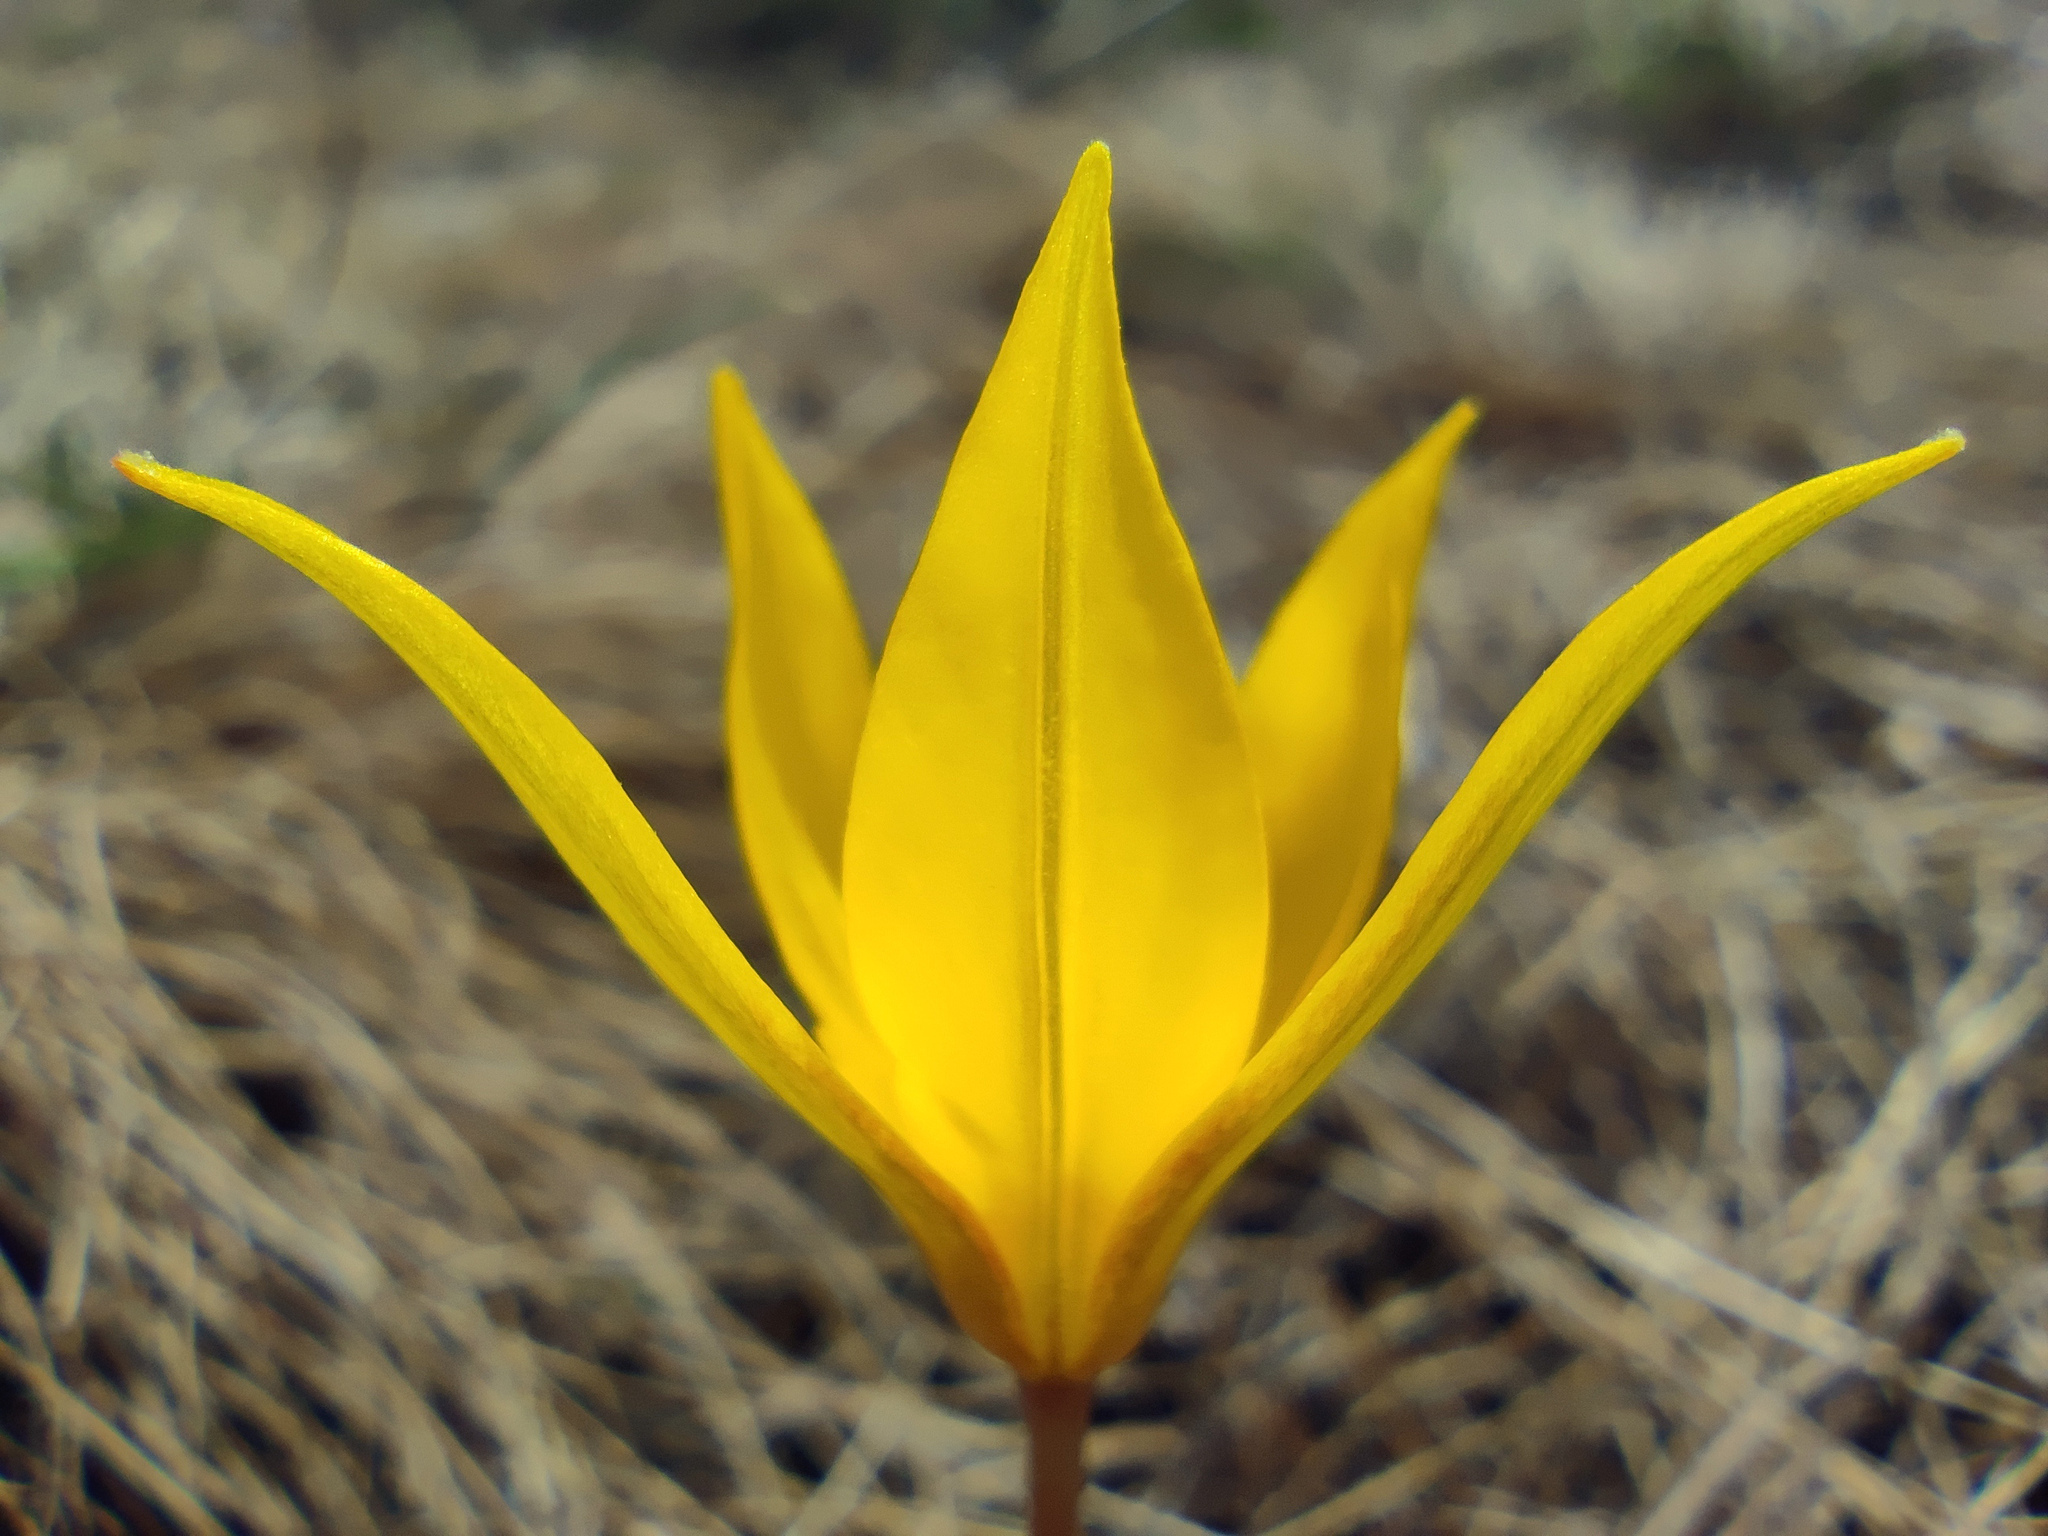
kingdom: Plantae
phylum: Tracheophyta
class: Liliopsida
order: Liliales
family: Liliaceae
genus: Tulipa
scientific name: Tulipa sylvestris
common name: Wild tulip
